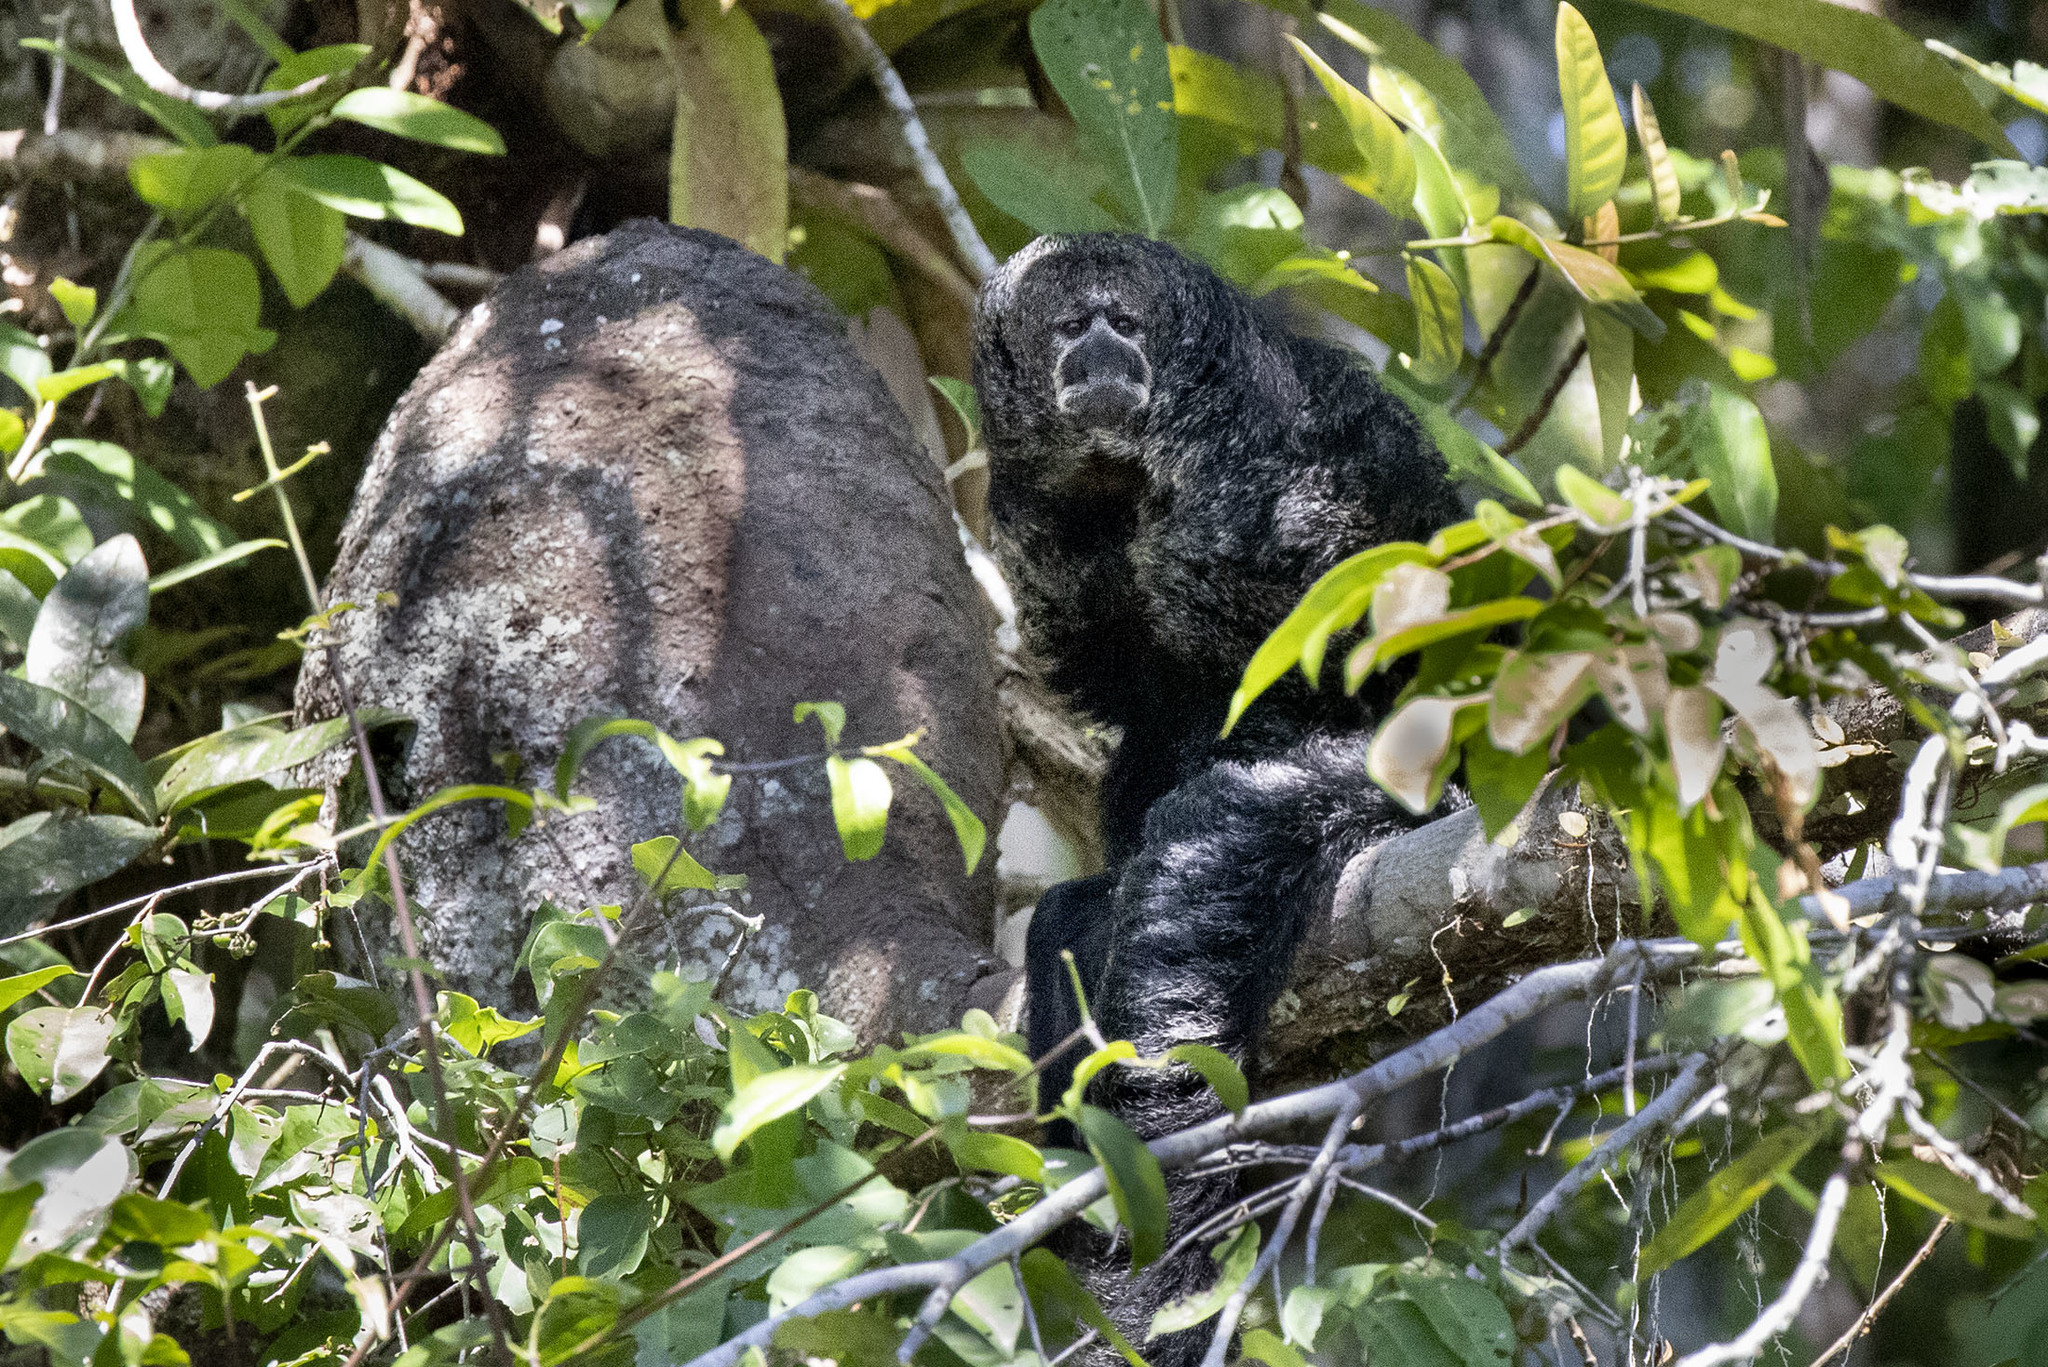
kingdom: Animalia
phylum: Chordata
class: Mammalia
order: Primates
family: Pitheciidae
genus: Pithecia
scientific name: Pithecia milleri
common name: Miller's saki
